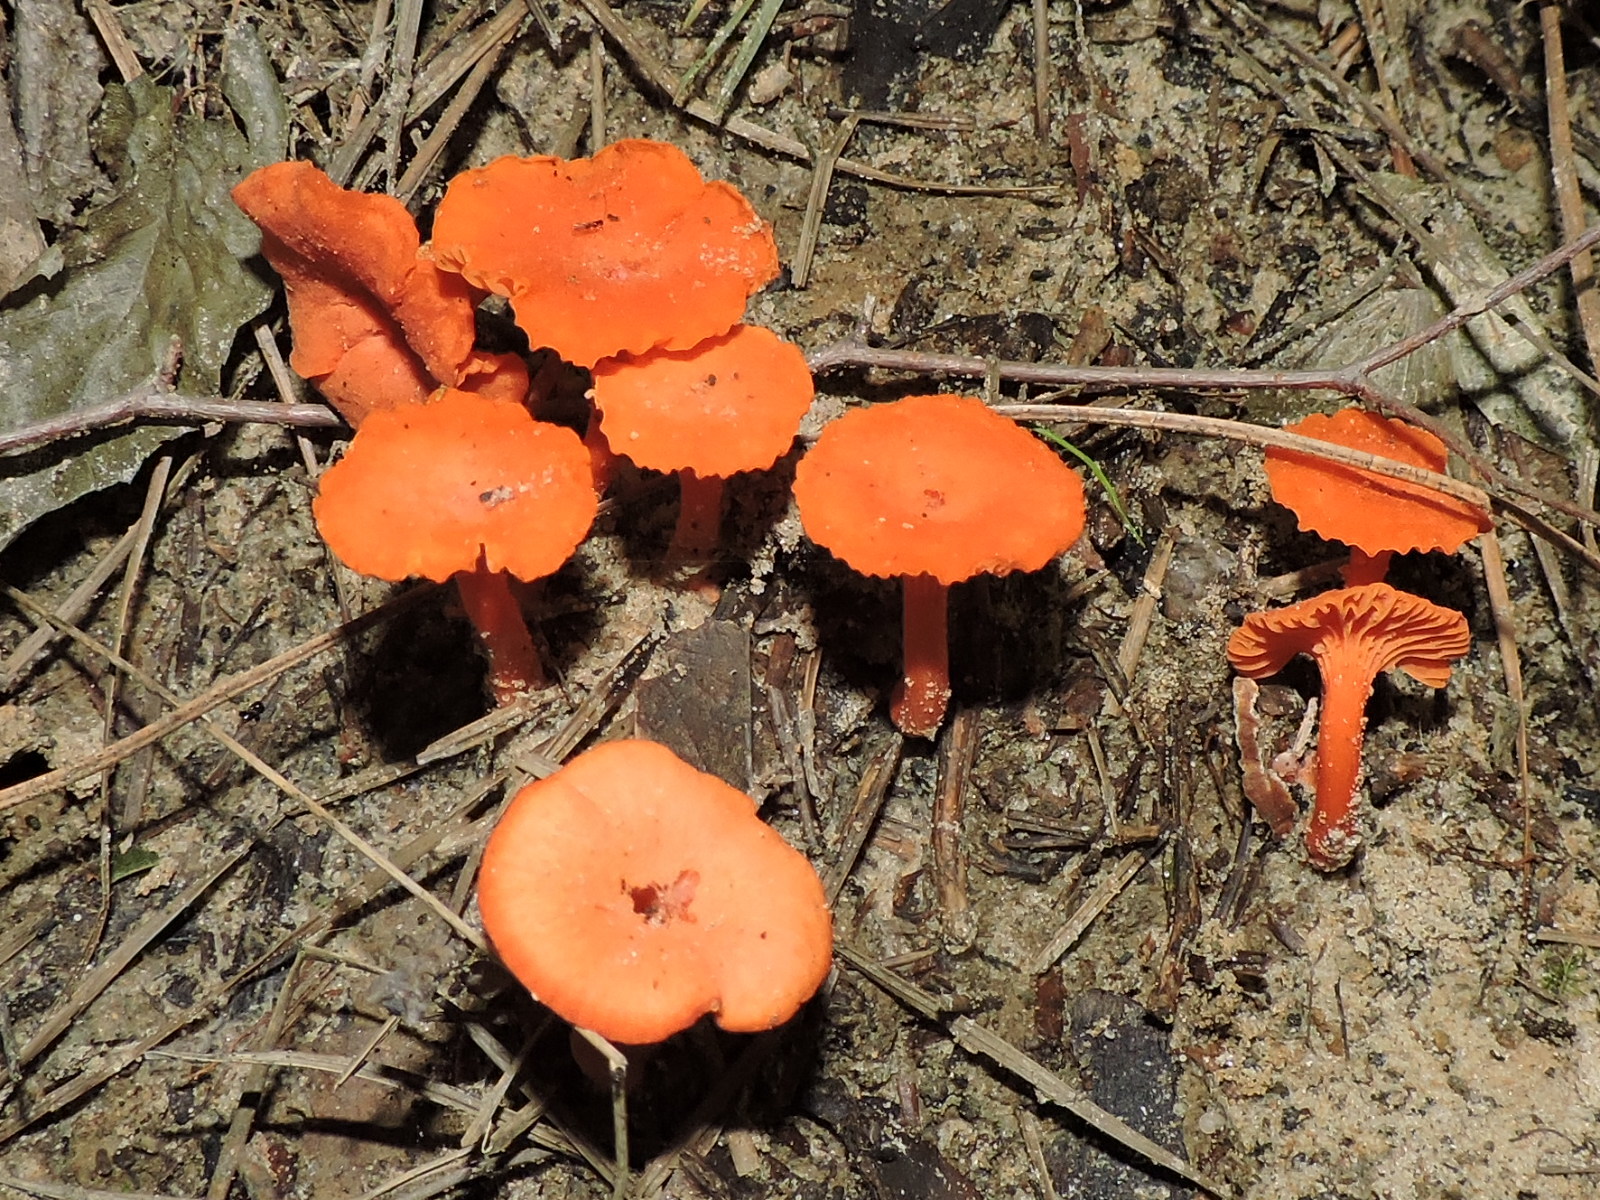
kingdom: Fungi
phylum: Basidiomycota
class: Agaricomycetes
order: Cantharellales
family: Hydnaceae
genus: Cantharellus
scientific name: Cantharellus cinnabarinus
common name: Cinnabar chanterelle
